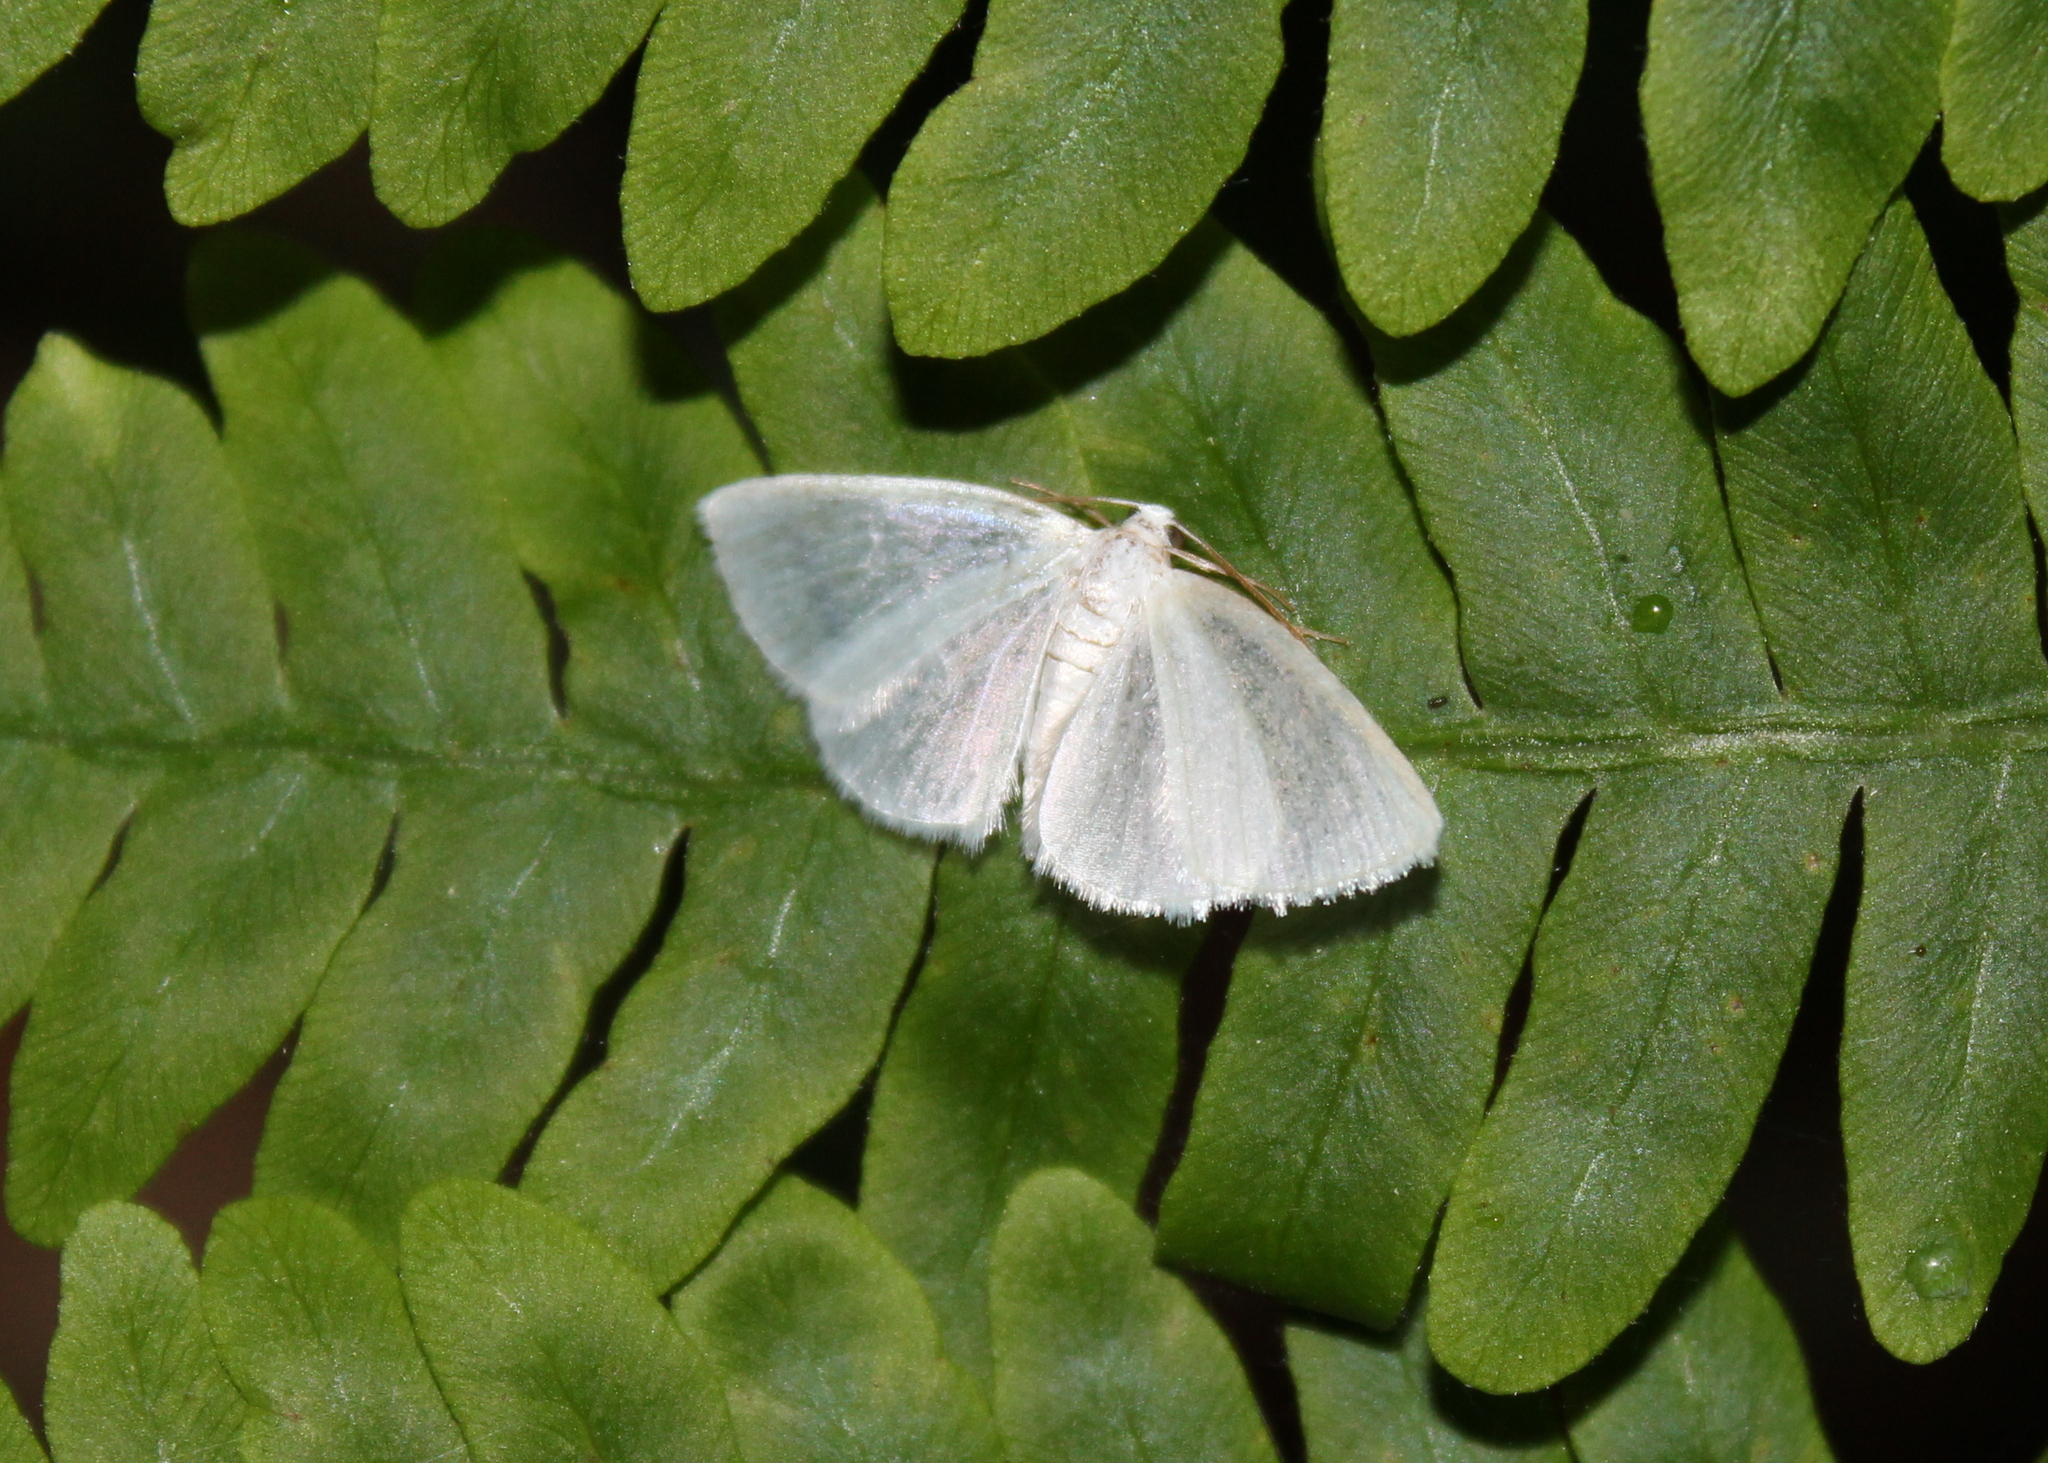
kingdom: Animalia
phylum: Arthropoda
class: Insecta
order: Lepidoptera
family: Geometridae
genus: Lomographa
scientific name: Lomographa vestaliata
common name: White spring moth
